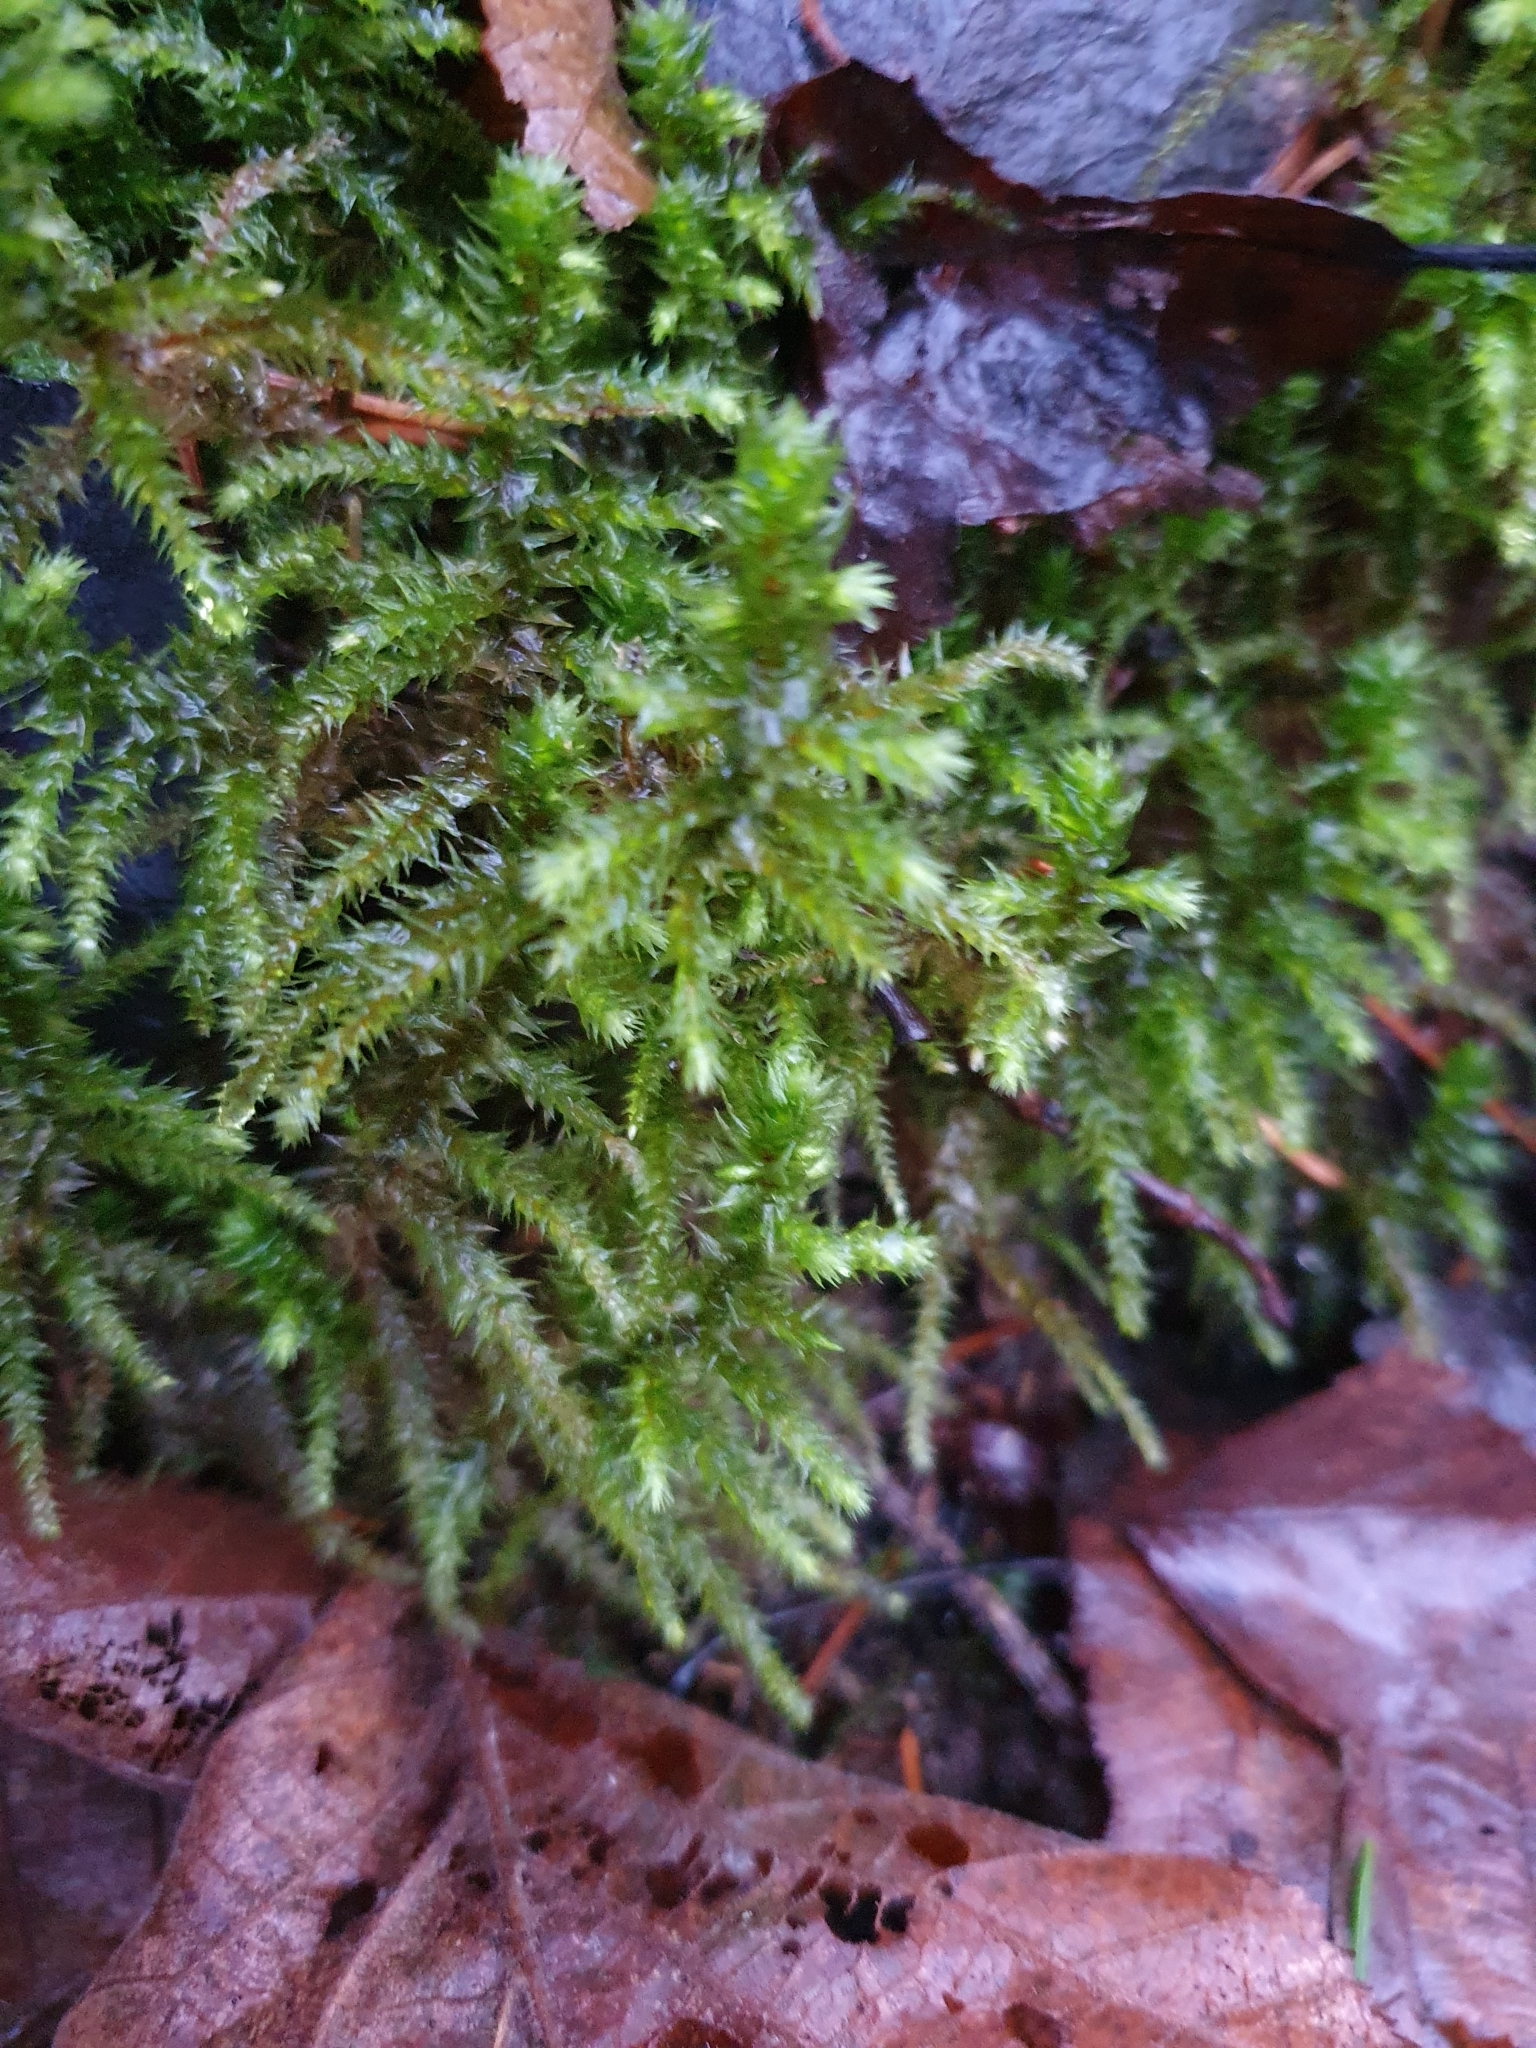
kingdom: Plantae
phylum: Bryophyta
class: Bryopsida
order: Hypnales
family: Hylocomiaceae
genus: Hylocomiadelphus
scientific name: Hylocomiadelphus triquetrus
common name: Rough goose neck moss
